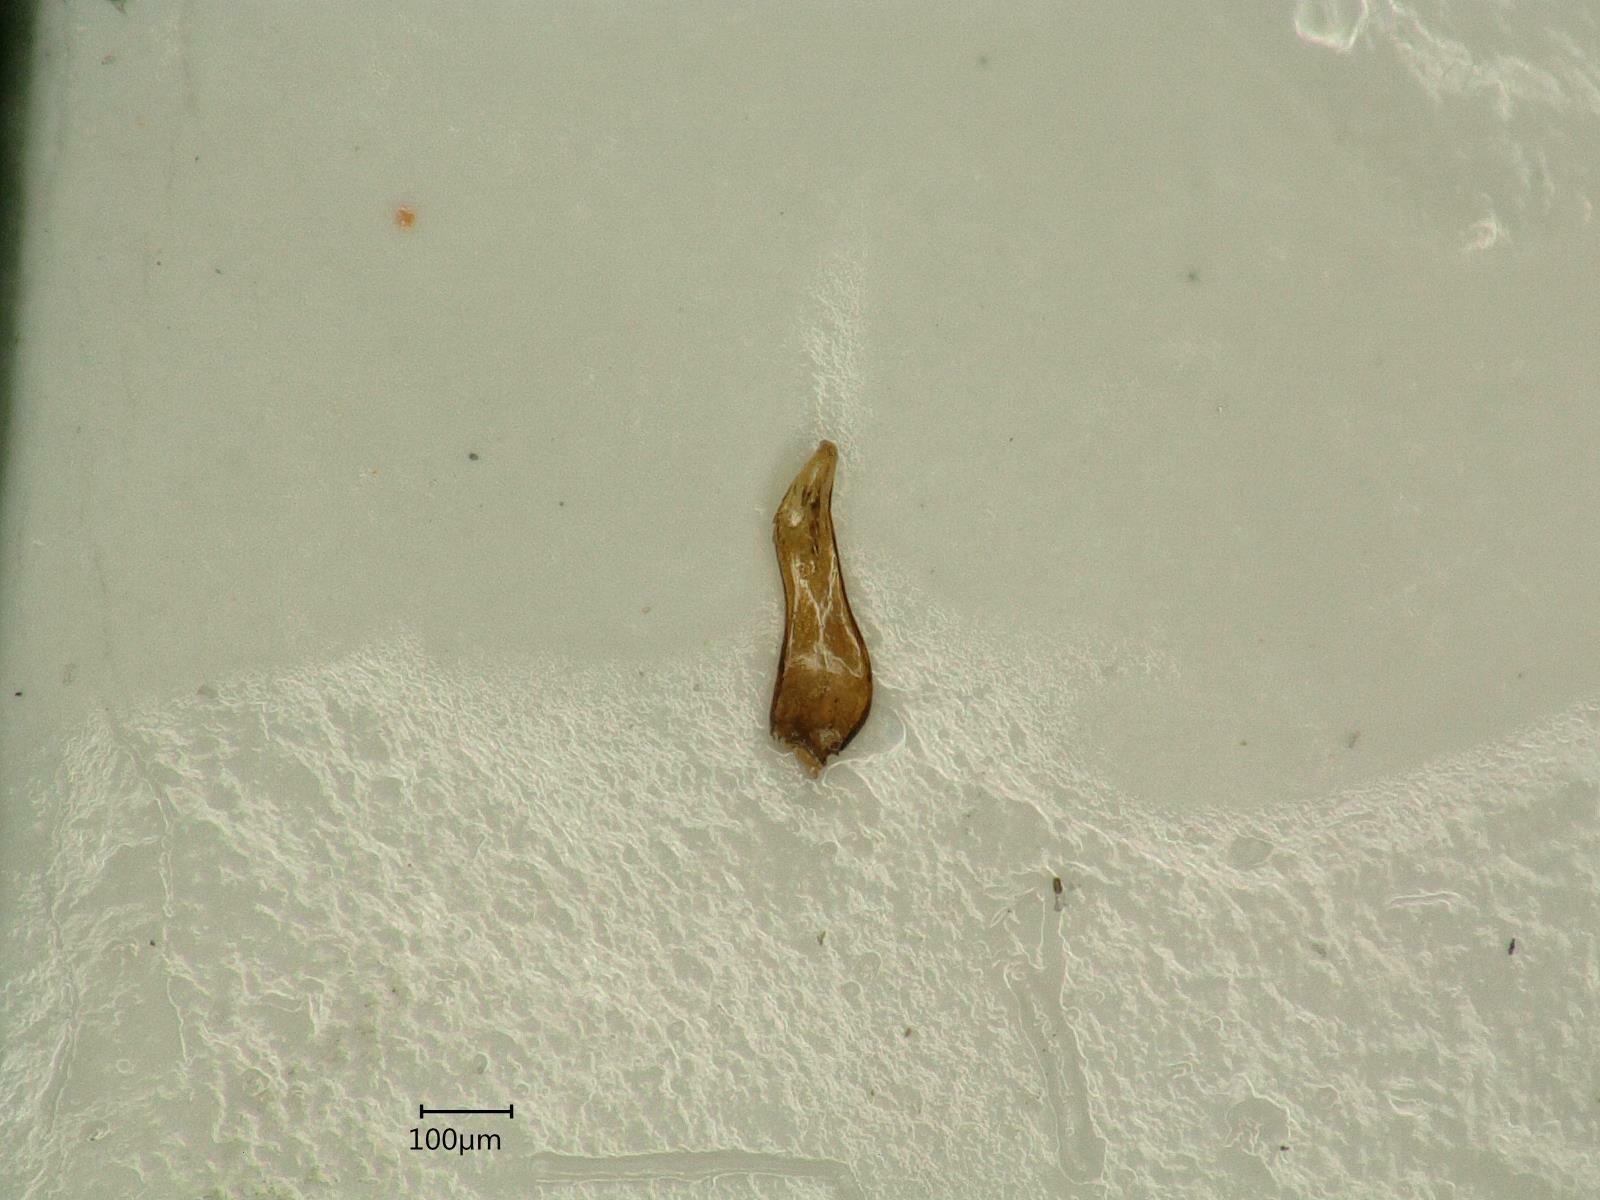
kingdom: Animalia
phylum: Arthropoda
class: Insecta
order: Hemiptera
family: Delphacidae
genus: Chloriona
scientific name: Chloriona vasconica
